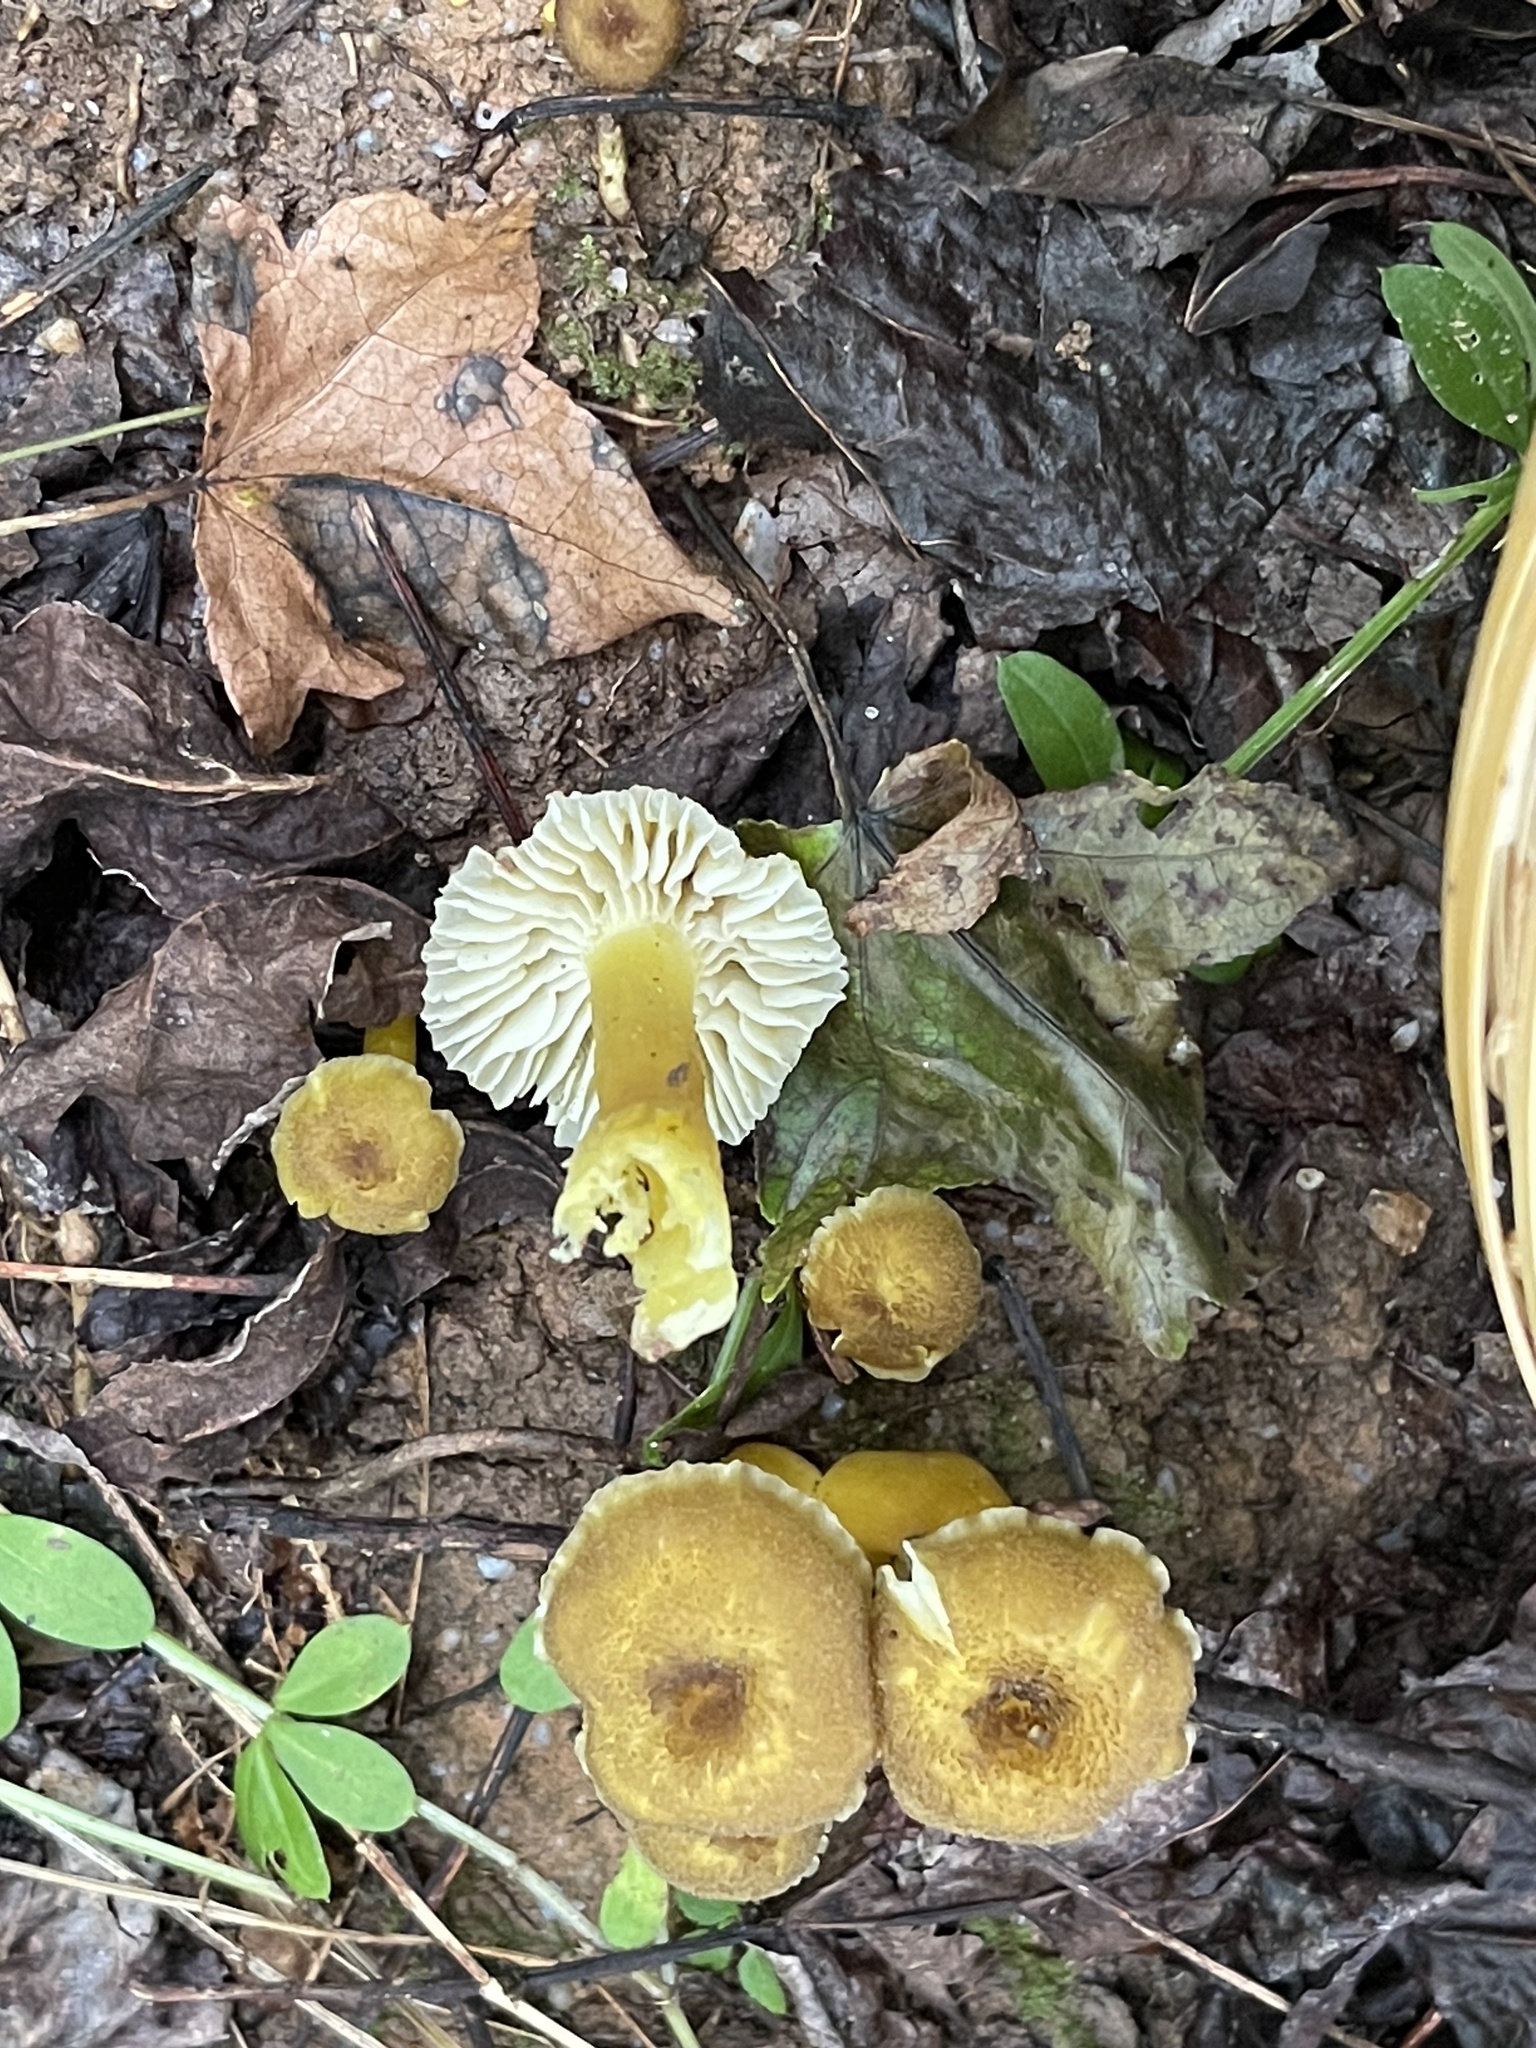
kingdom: Fungi
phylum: Basidiomycota
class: Agaricomycetes
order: Agaricales
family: Hygrophoraceae
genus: Hygrocybe
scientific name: Hygrocybe caespitosa
